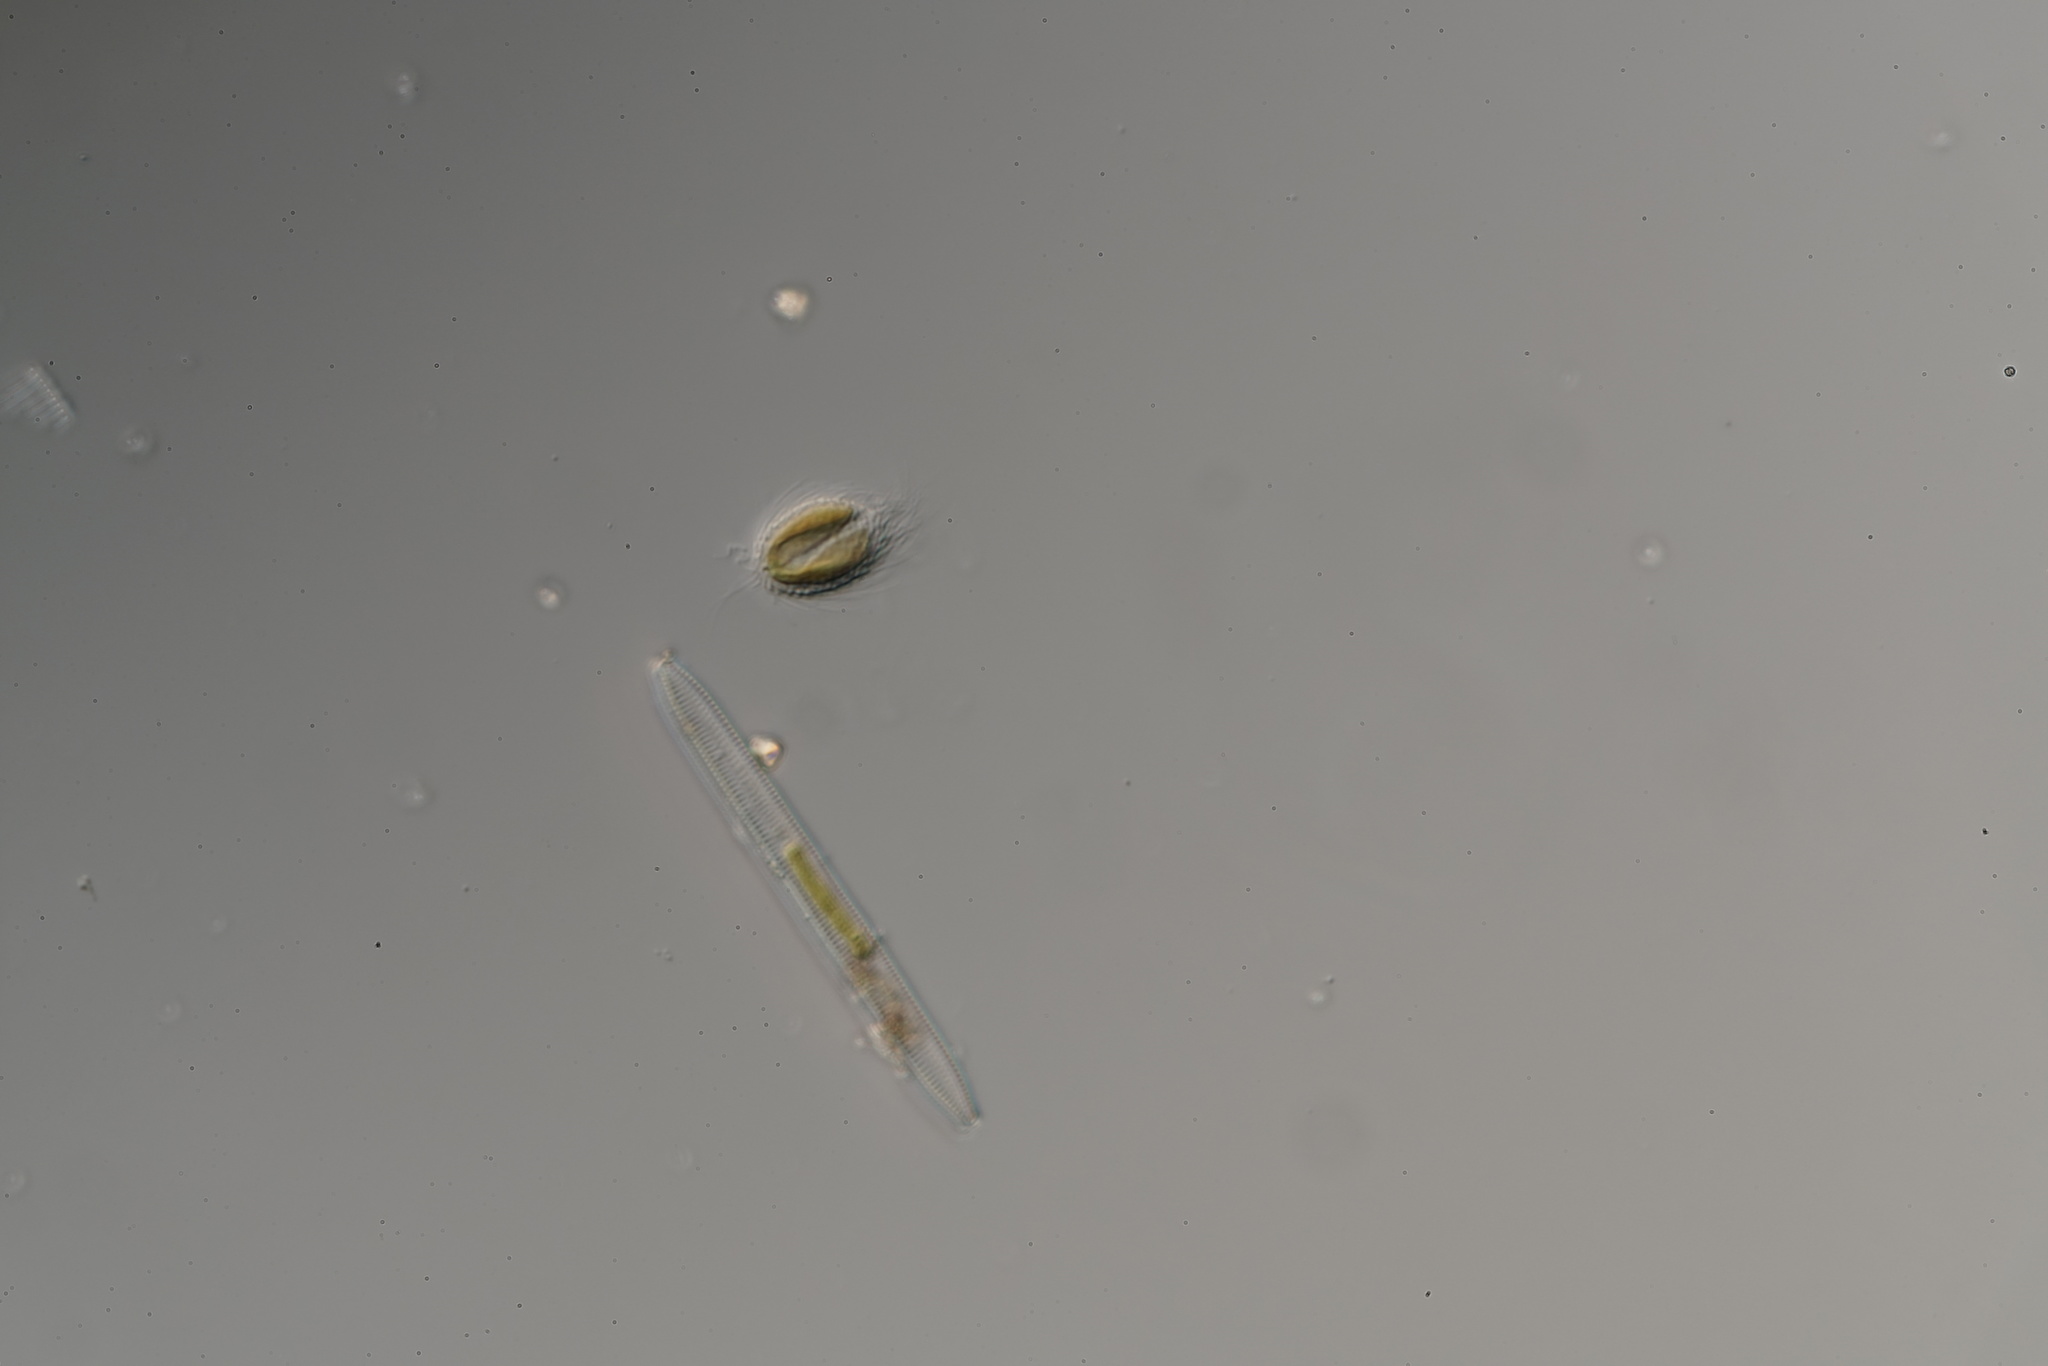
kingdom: Chromista
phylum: Ochrophyta
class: Chrysophyceae
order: Synurales
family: Mallomonadaceae
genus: Mallomonas
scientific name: Mallomonas
